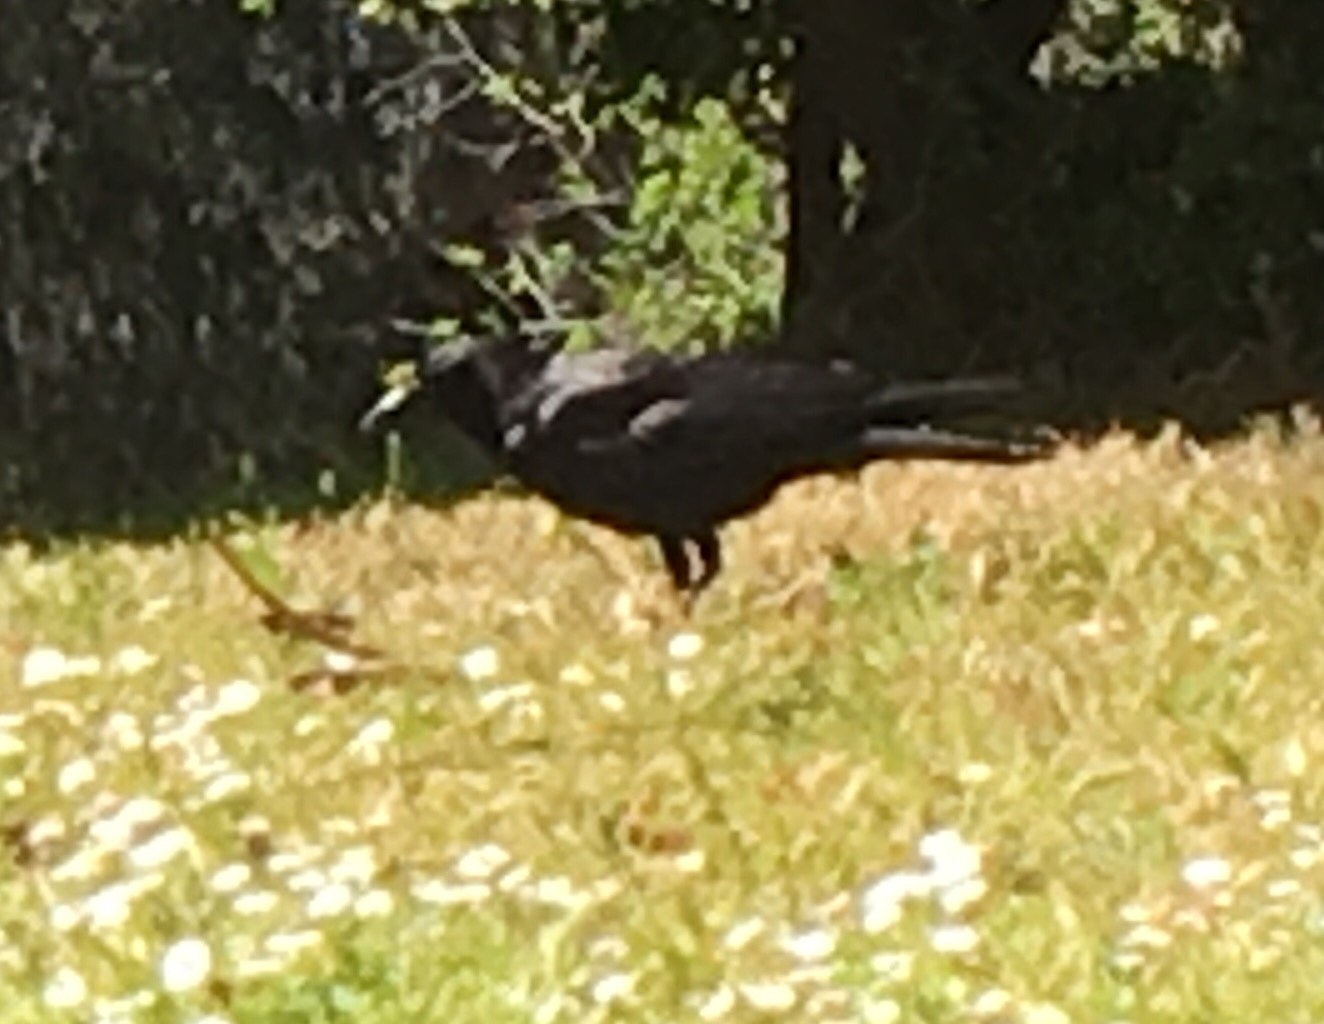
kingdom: Animalia
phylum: Chordata
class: Aves
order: Passeriformes
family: Corvidae
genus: Corvus
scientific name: Corvus corax
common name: Common raven
